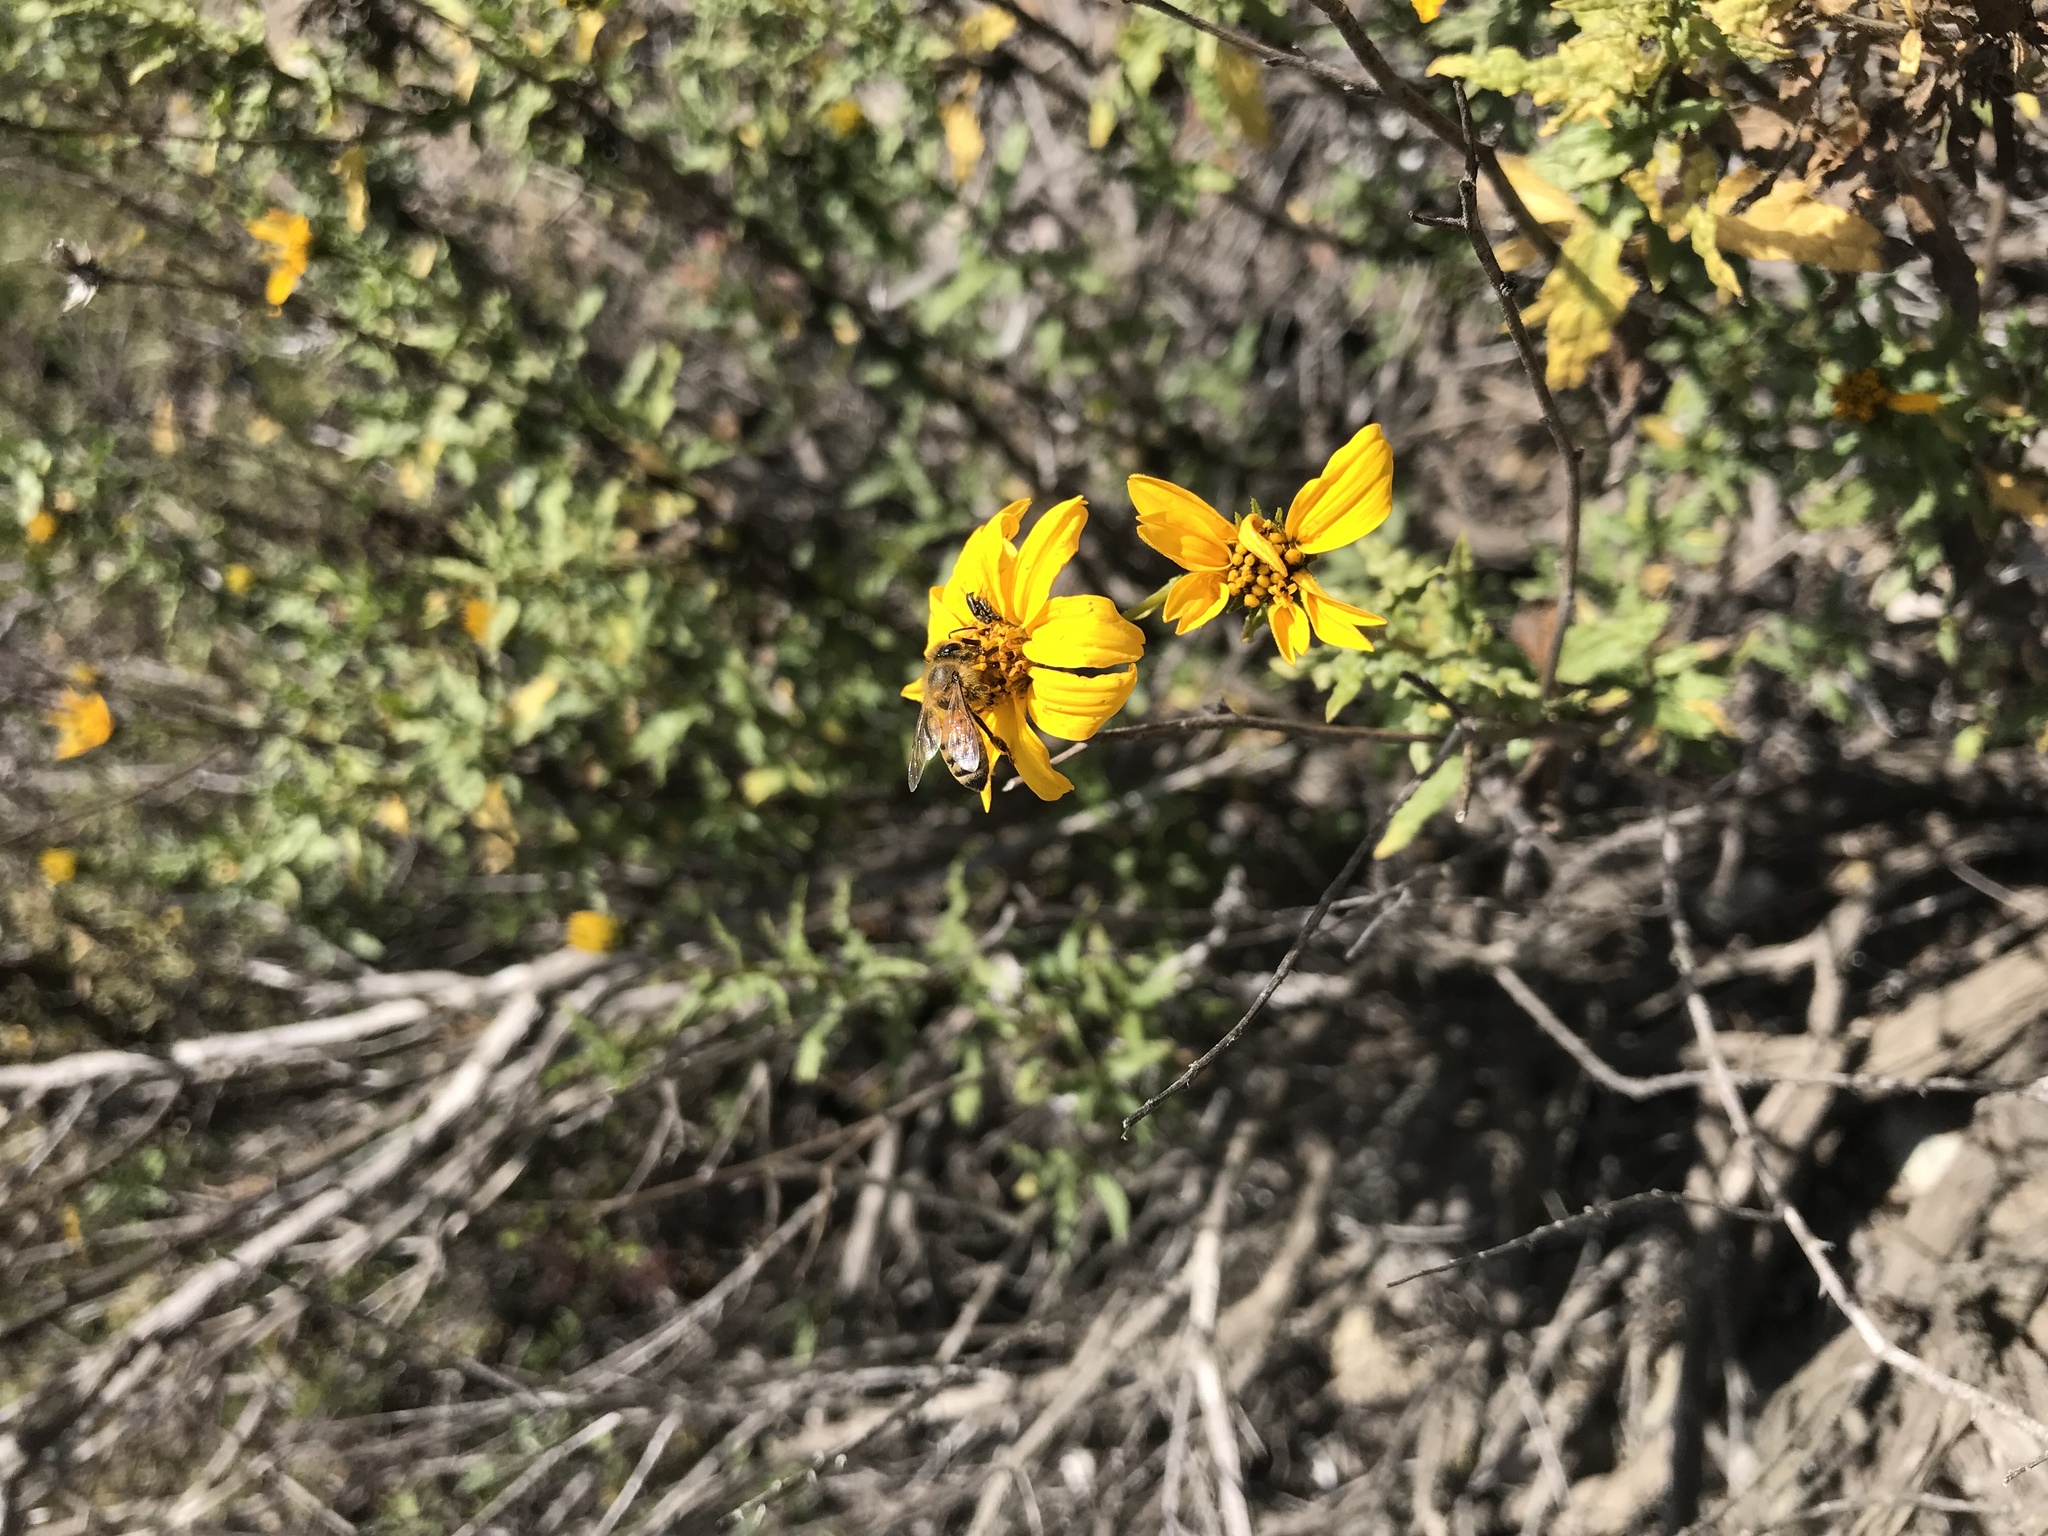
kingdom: Plantae
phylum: Tracheophyta
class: Magnoliopsida
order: Asterales
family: Asteraceae
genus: Bahiopsis
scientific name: Bahiopsis laciniata
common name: San diego county viguiera
